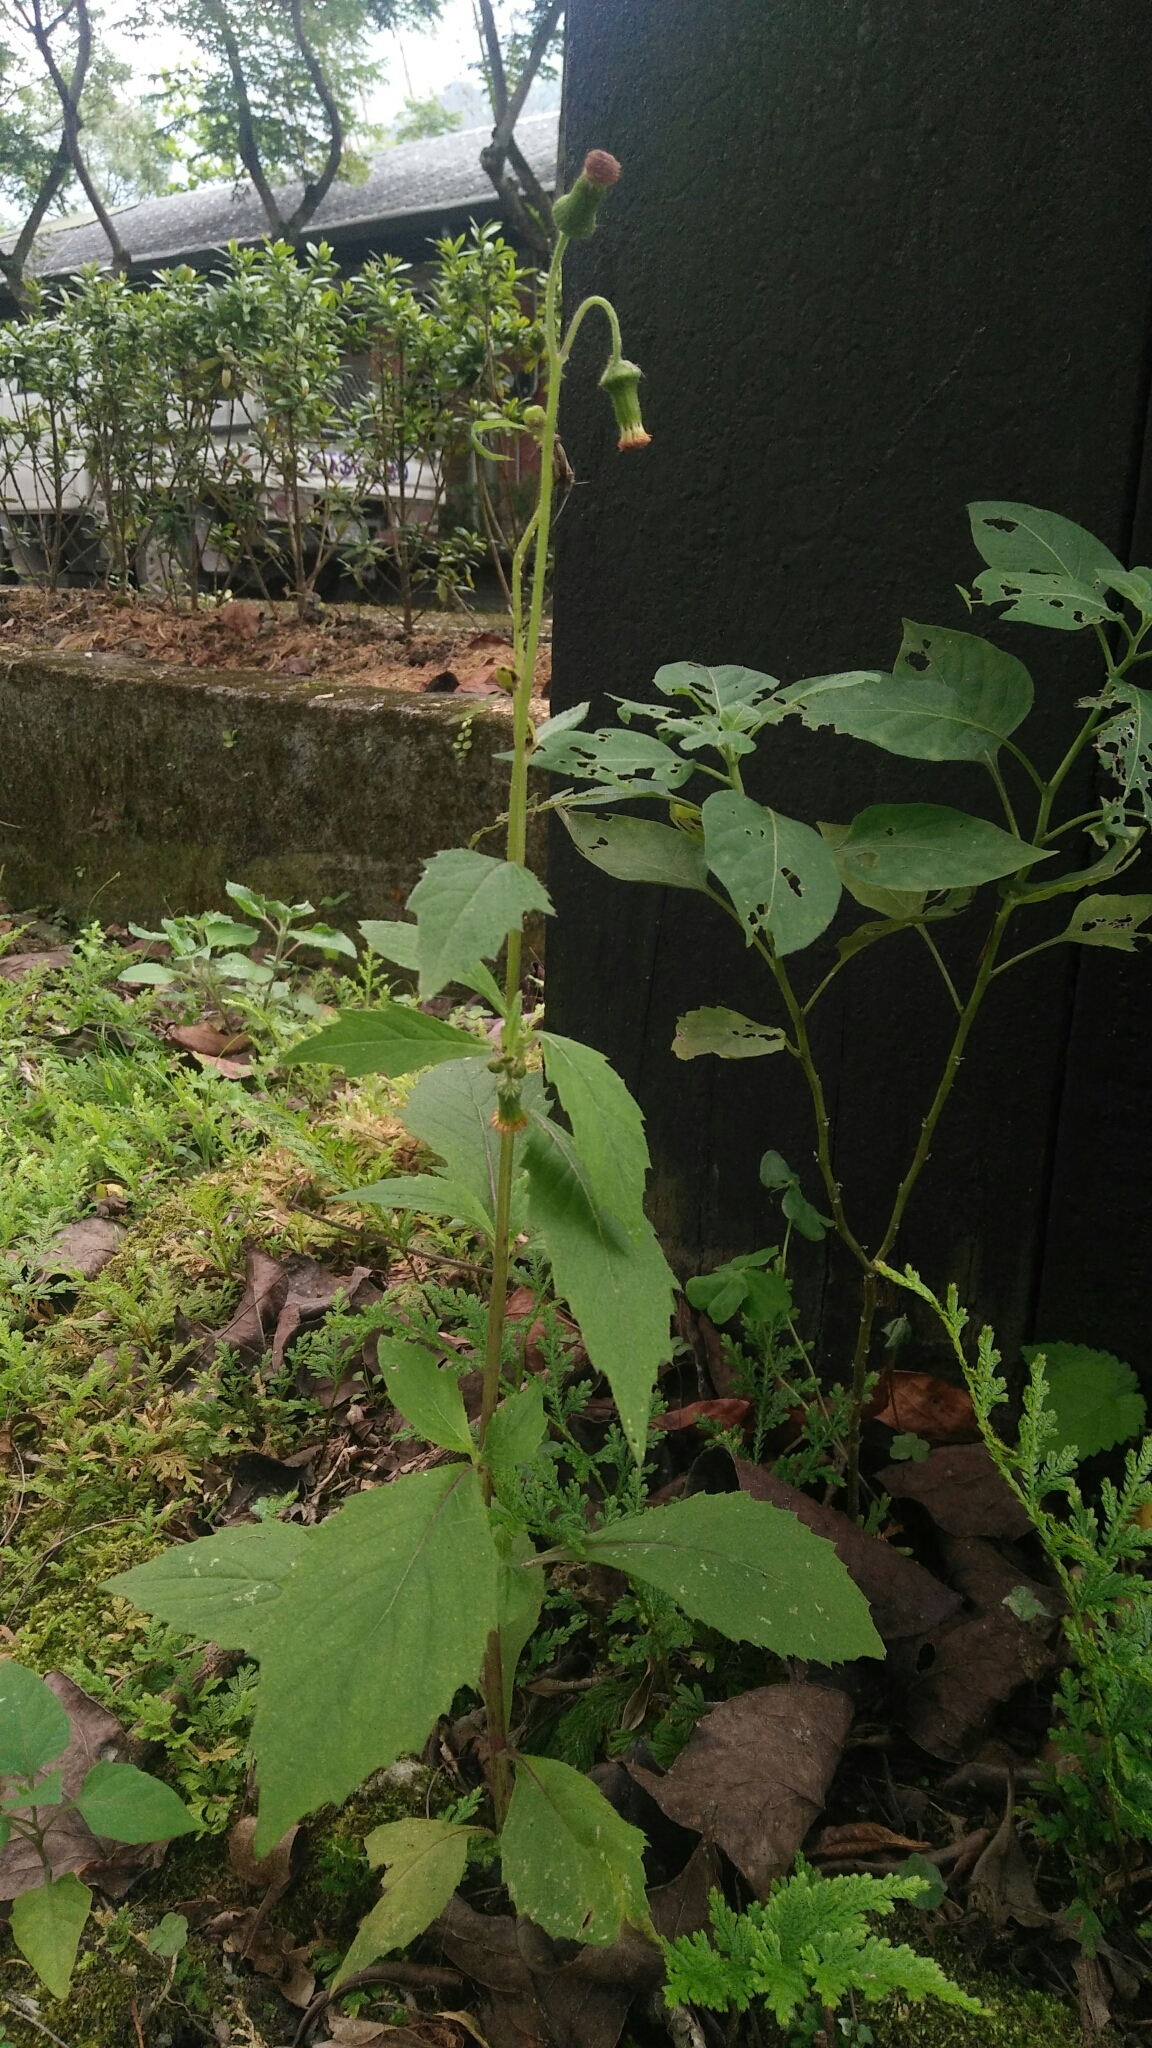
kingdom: Plantae
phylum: Tracheophyta
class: Magnoliopsida
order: Asterales
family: Asteraceae
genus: Crassocephalum
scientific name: Crassocephalum crepidioides
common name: Redflower ragleaf
